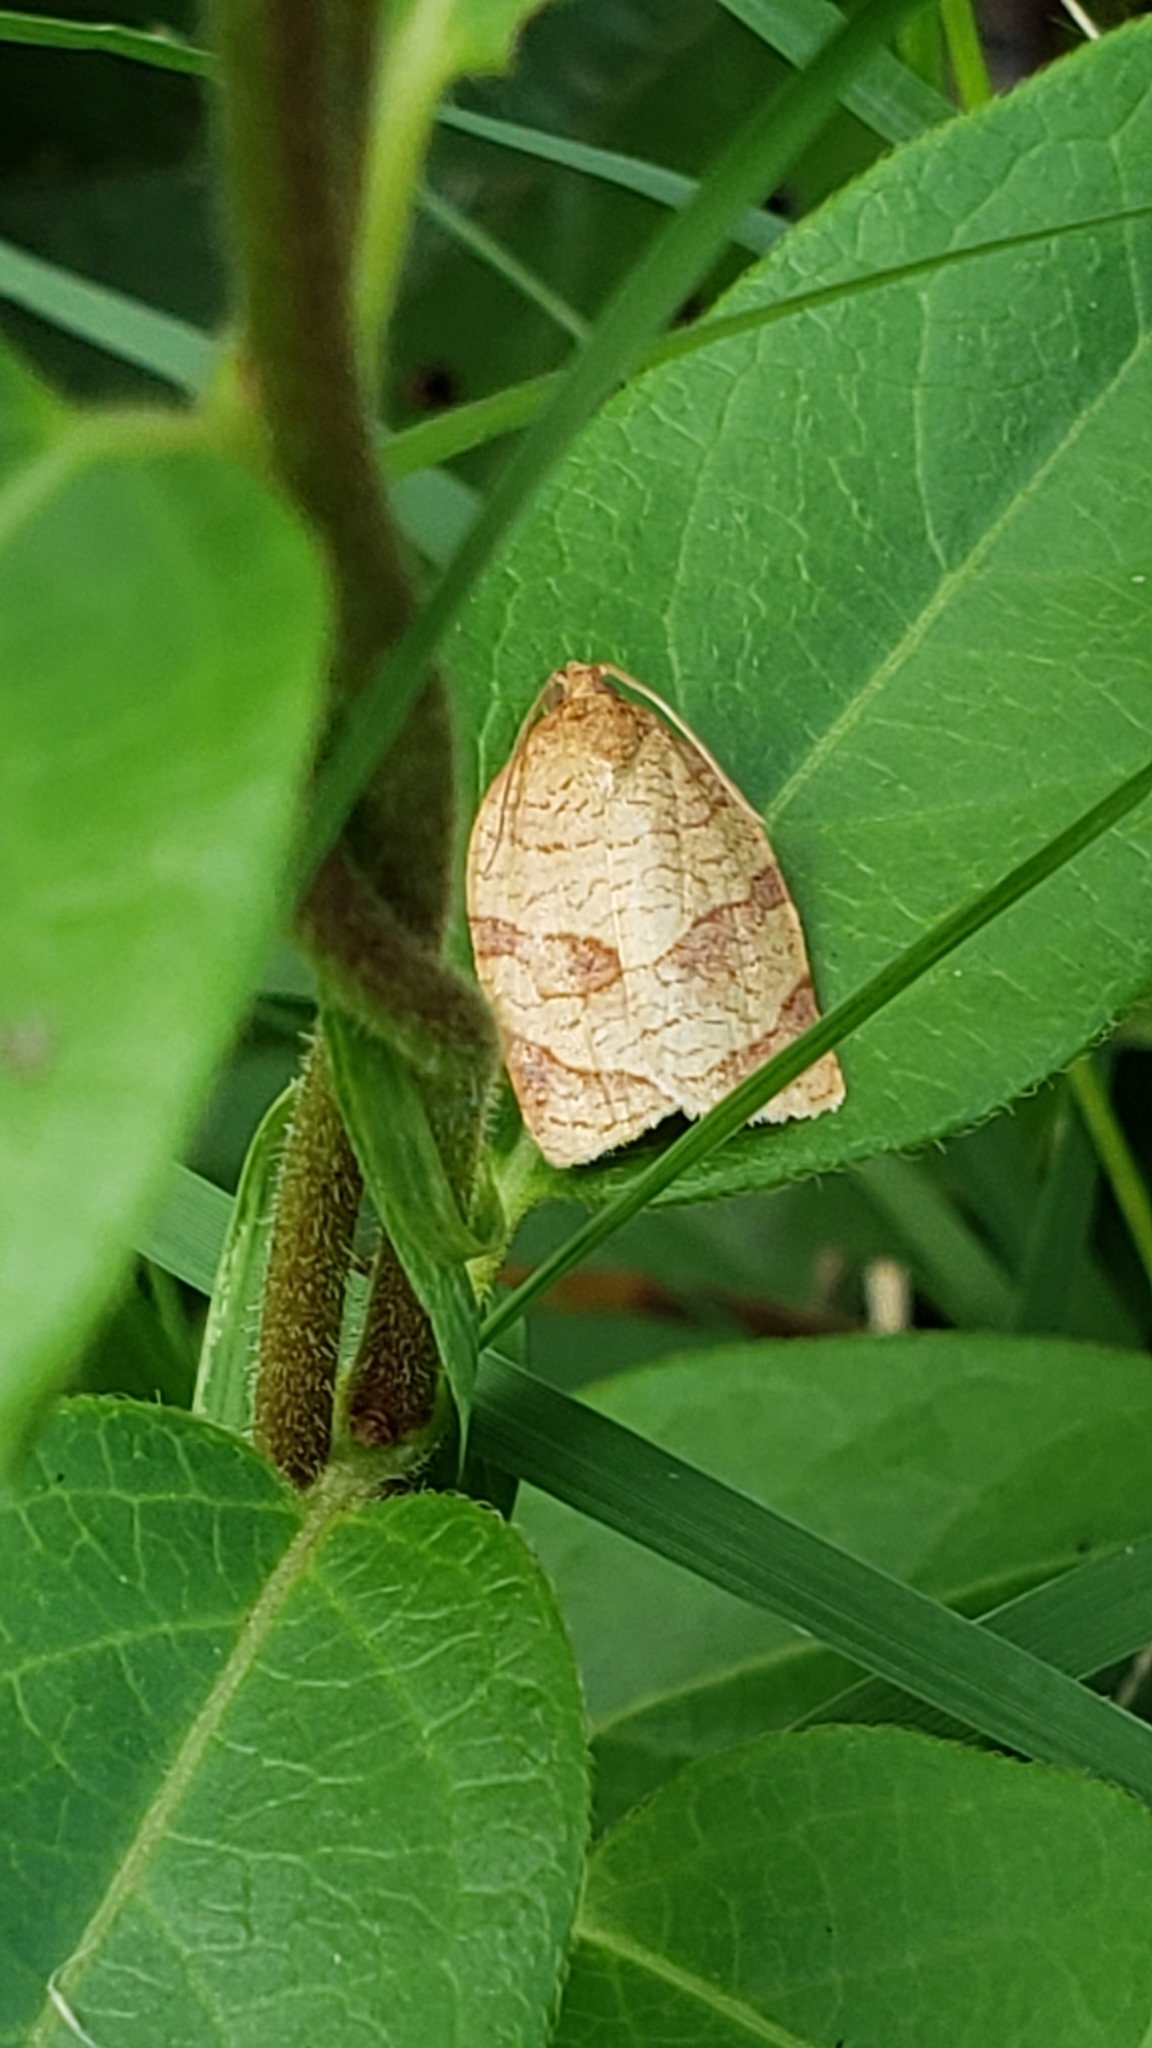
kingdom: Animalia
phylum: Arthropoda
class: Insecta
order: Lepidoptera
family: Tortricidae
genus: Choristoneura
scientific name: Choristoneura parallela
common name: Parallel-banded leafroller moth
